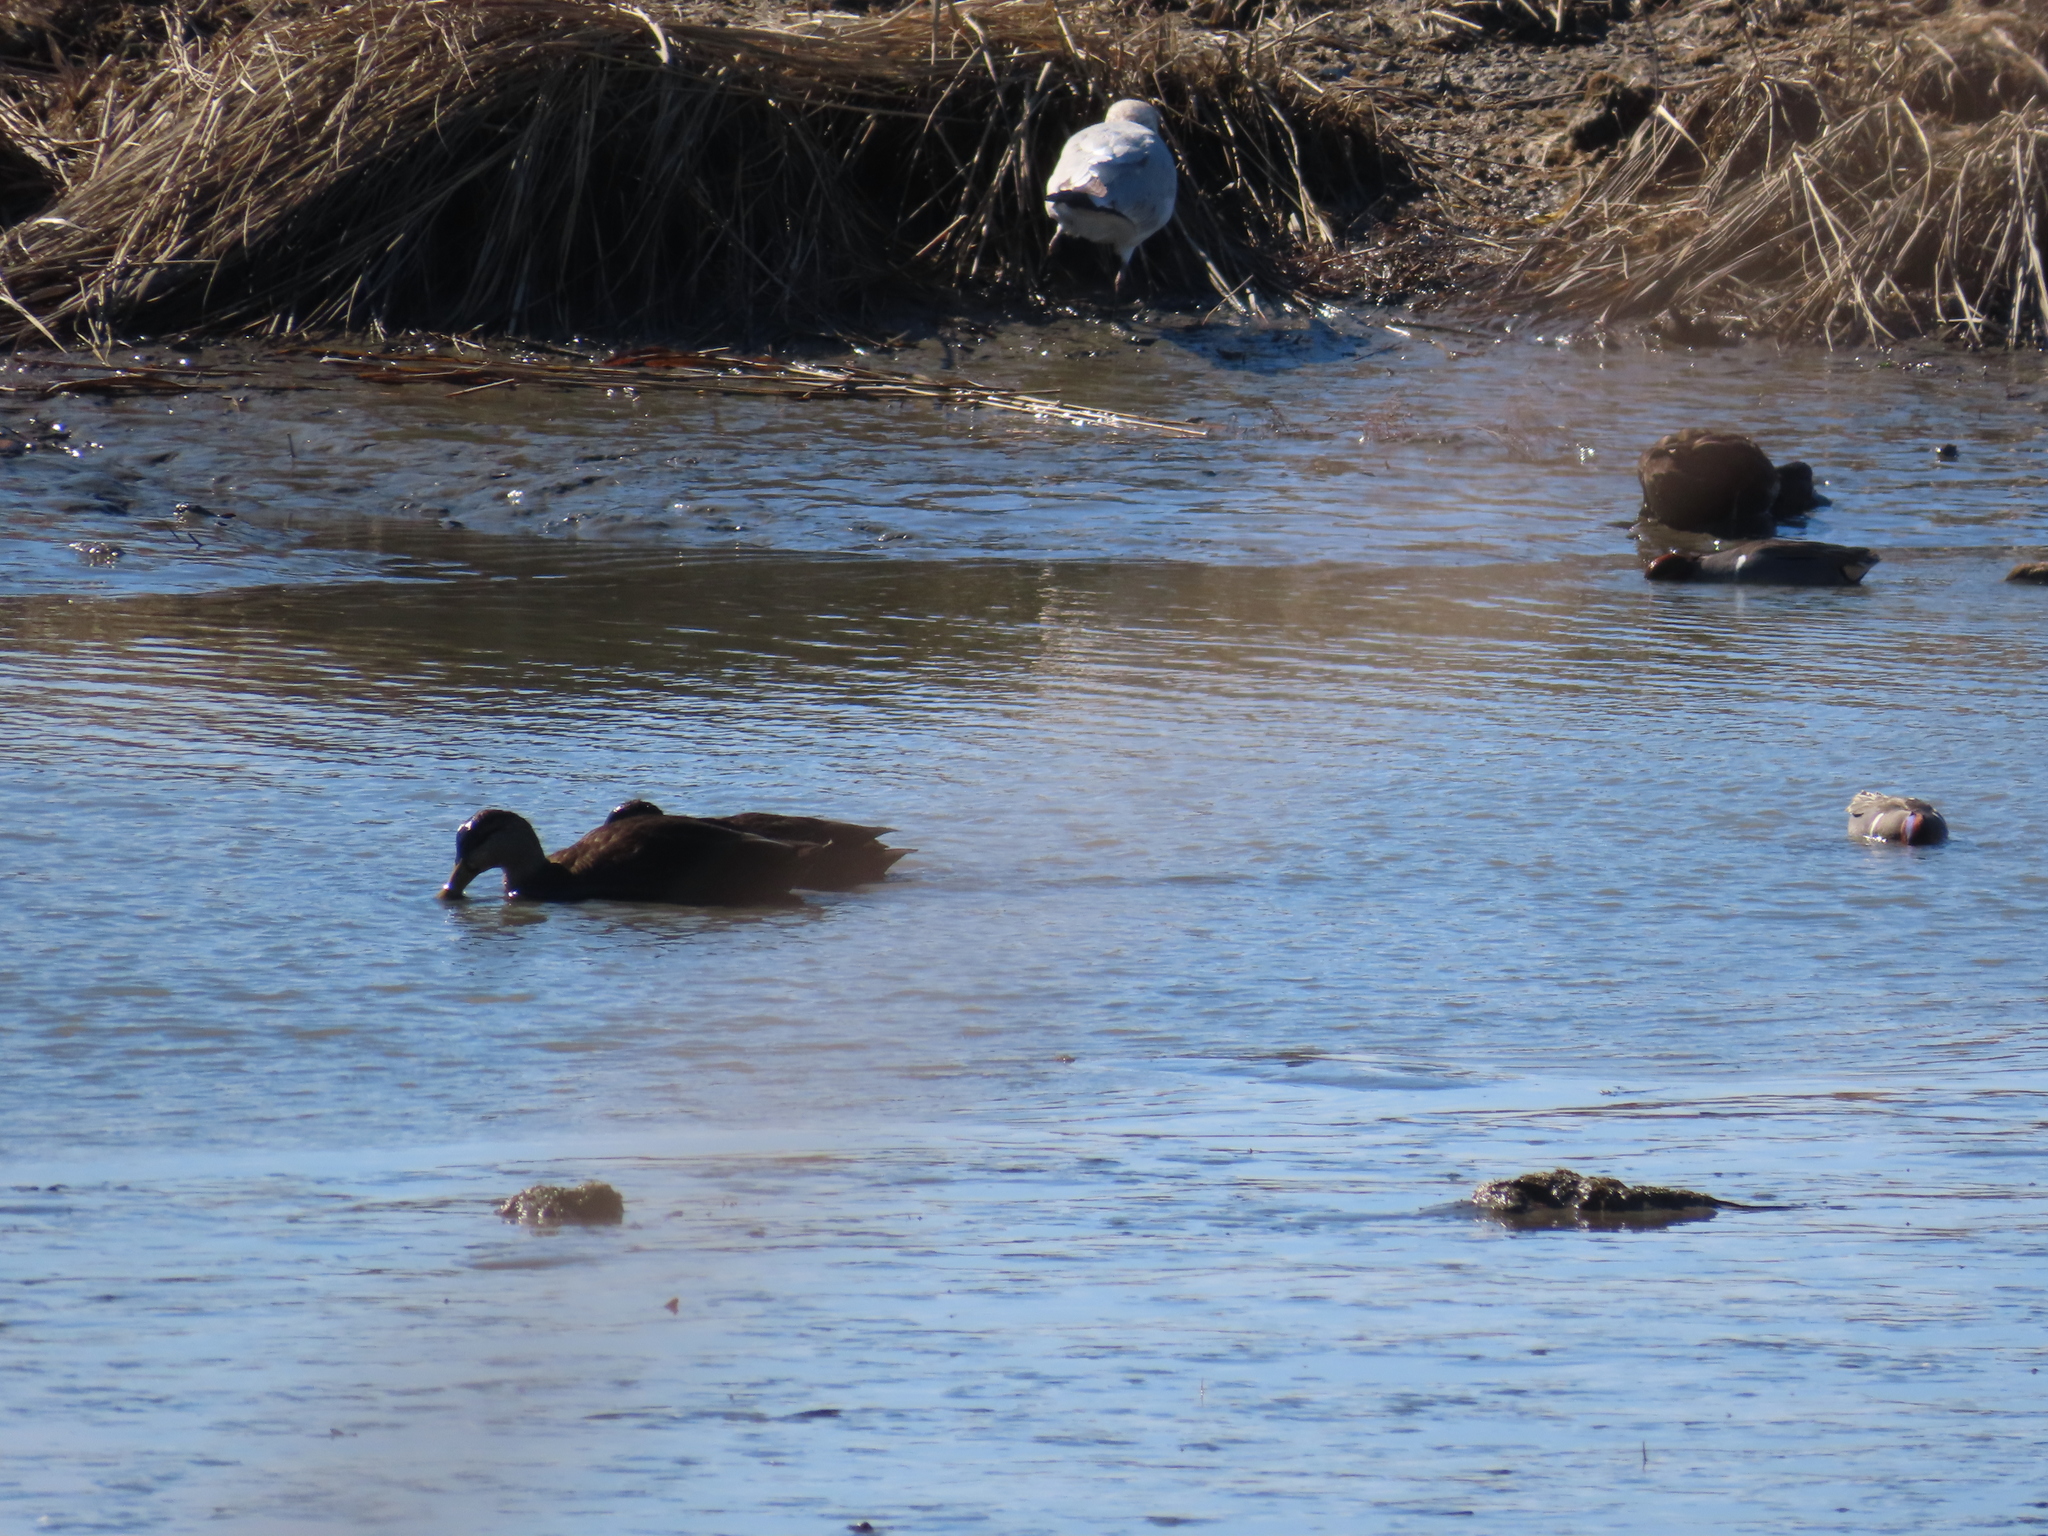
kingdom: Animalia
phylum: Chordata
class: Aves
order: Anseriformes
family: Anatidae
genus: Anas
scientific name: Anas rubripes
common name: American black duck
